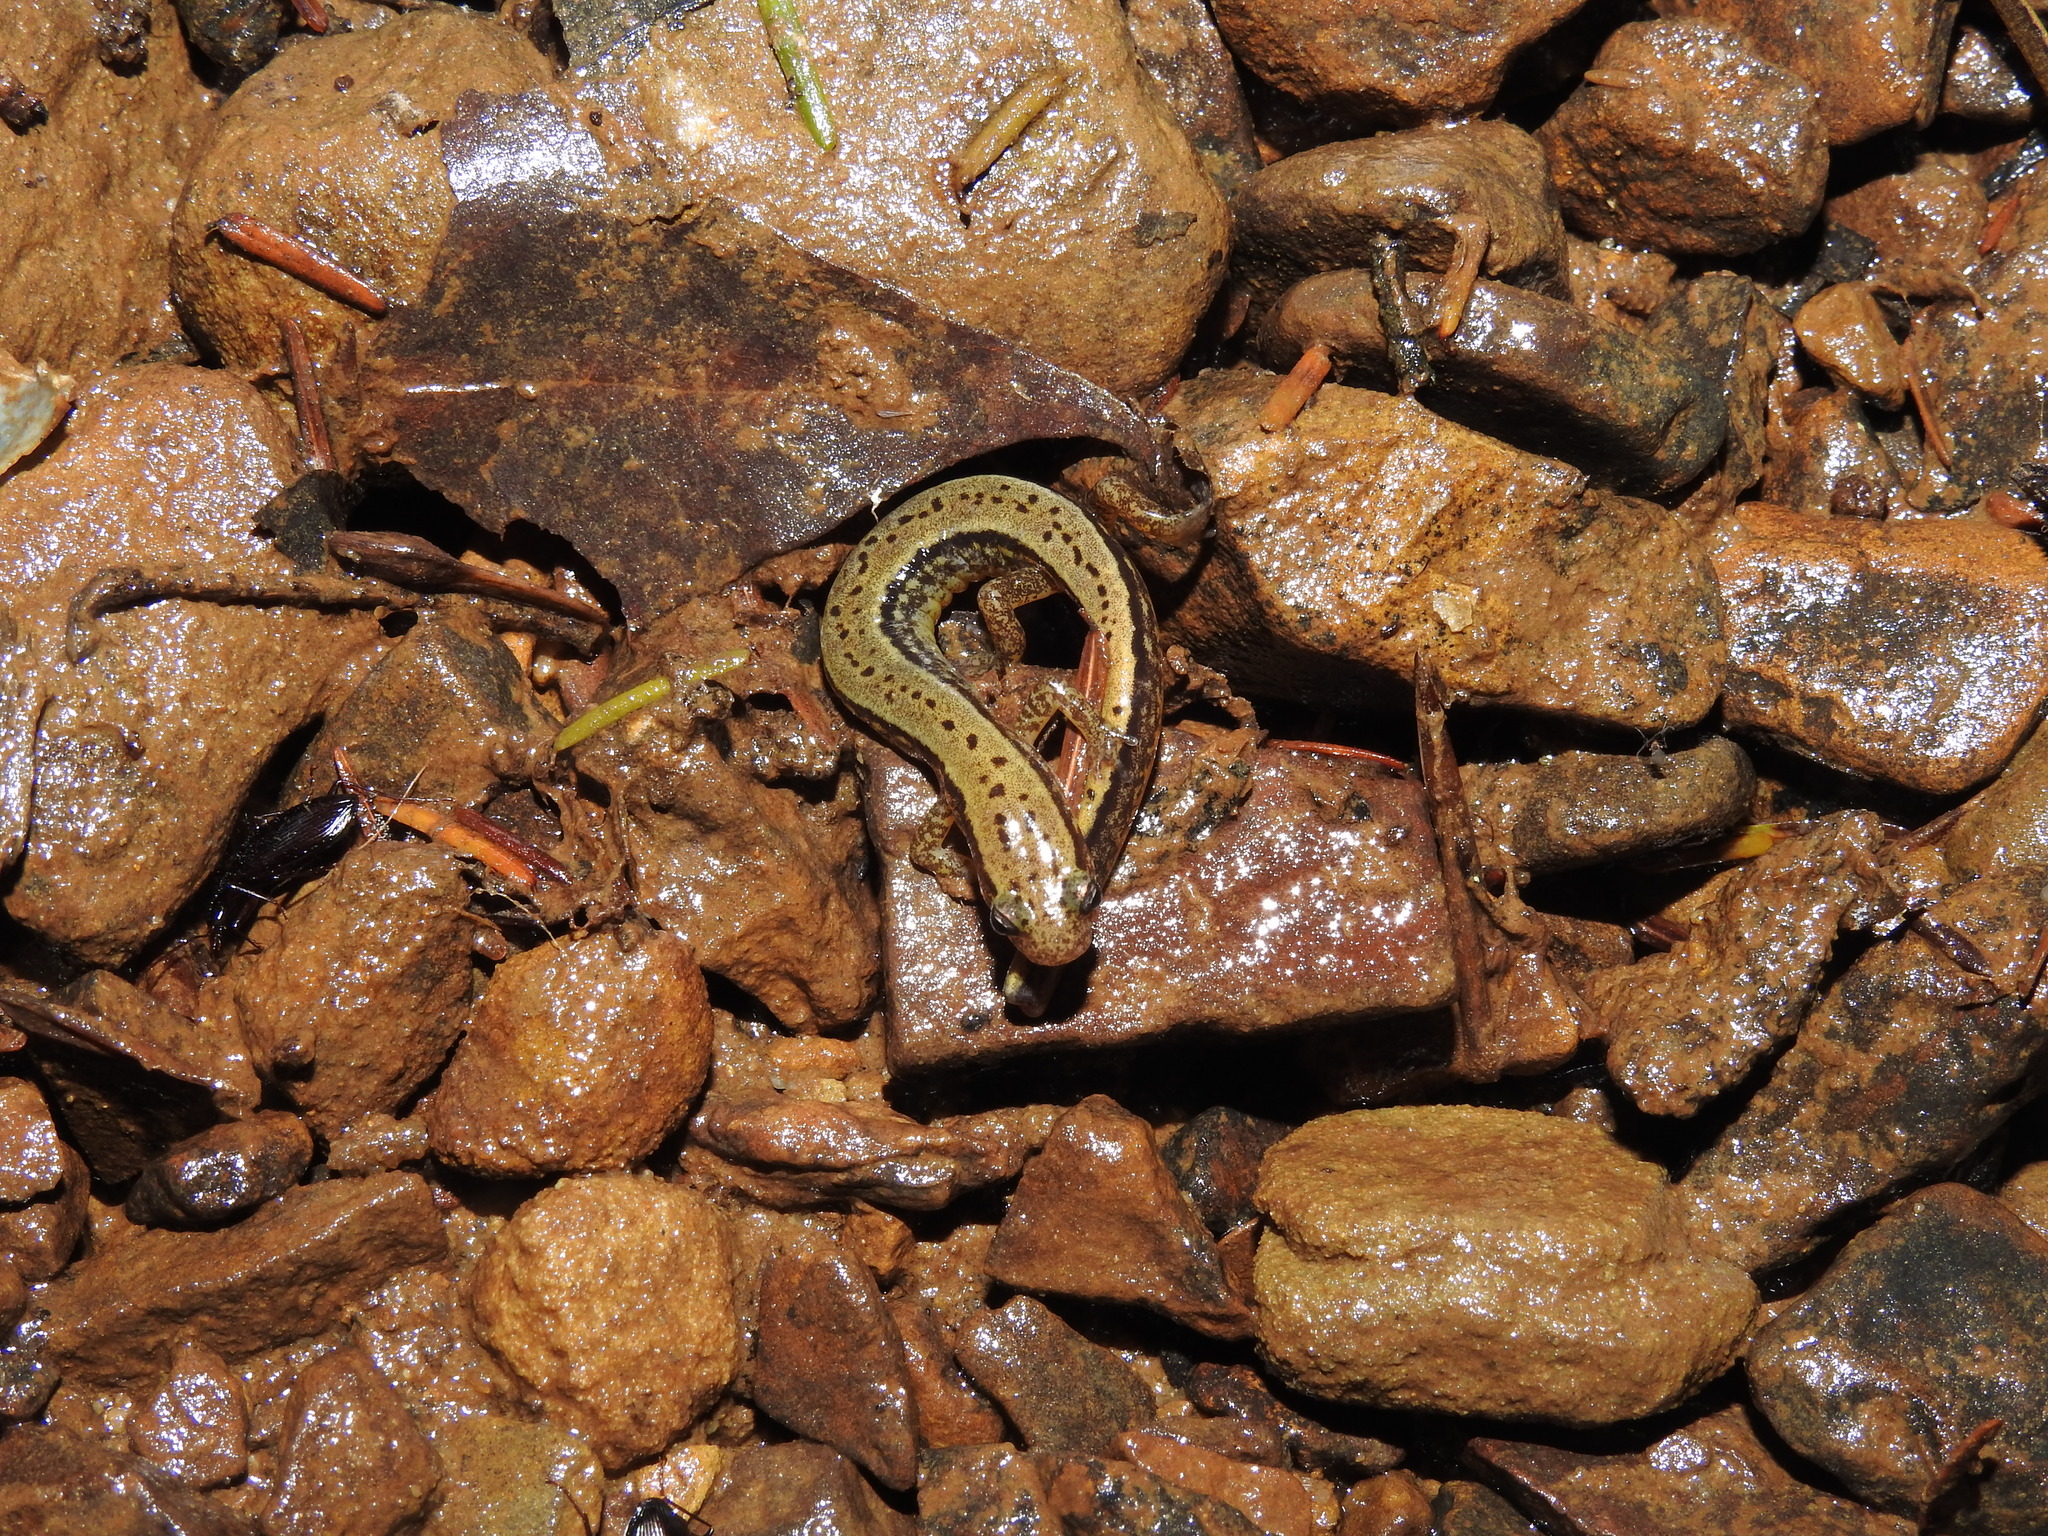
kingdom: Animalia
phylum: Chordata
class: Amphibia
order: Caudata
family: Plethodontidae
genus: Eurycea
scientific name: Eurycea cirrigera
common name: Southern two-lined salamander
